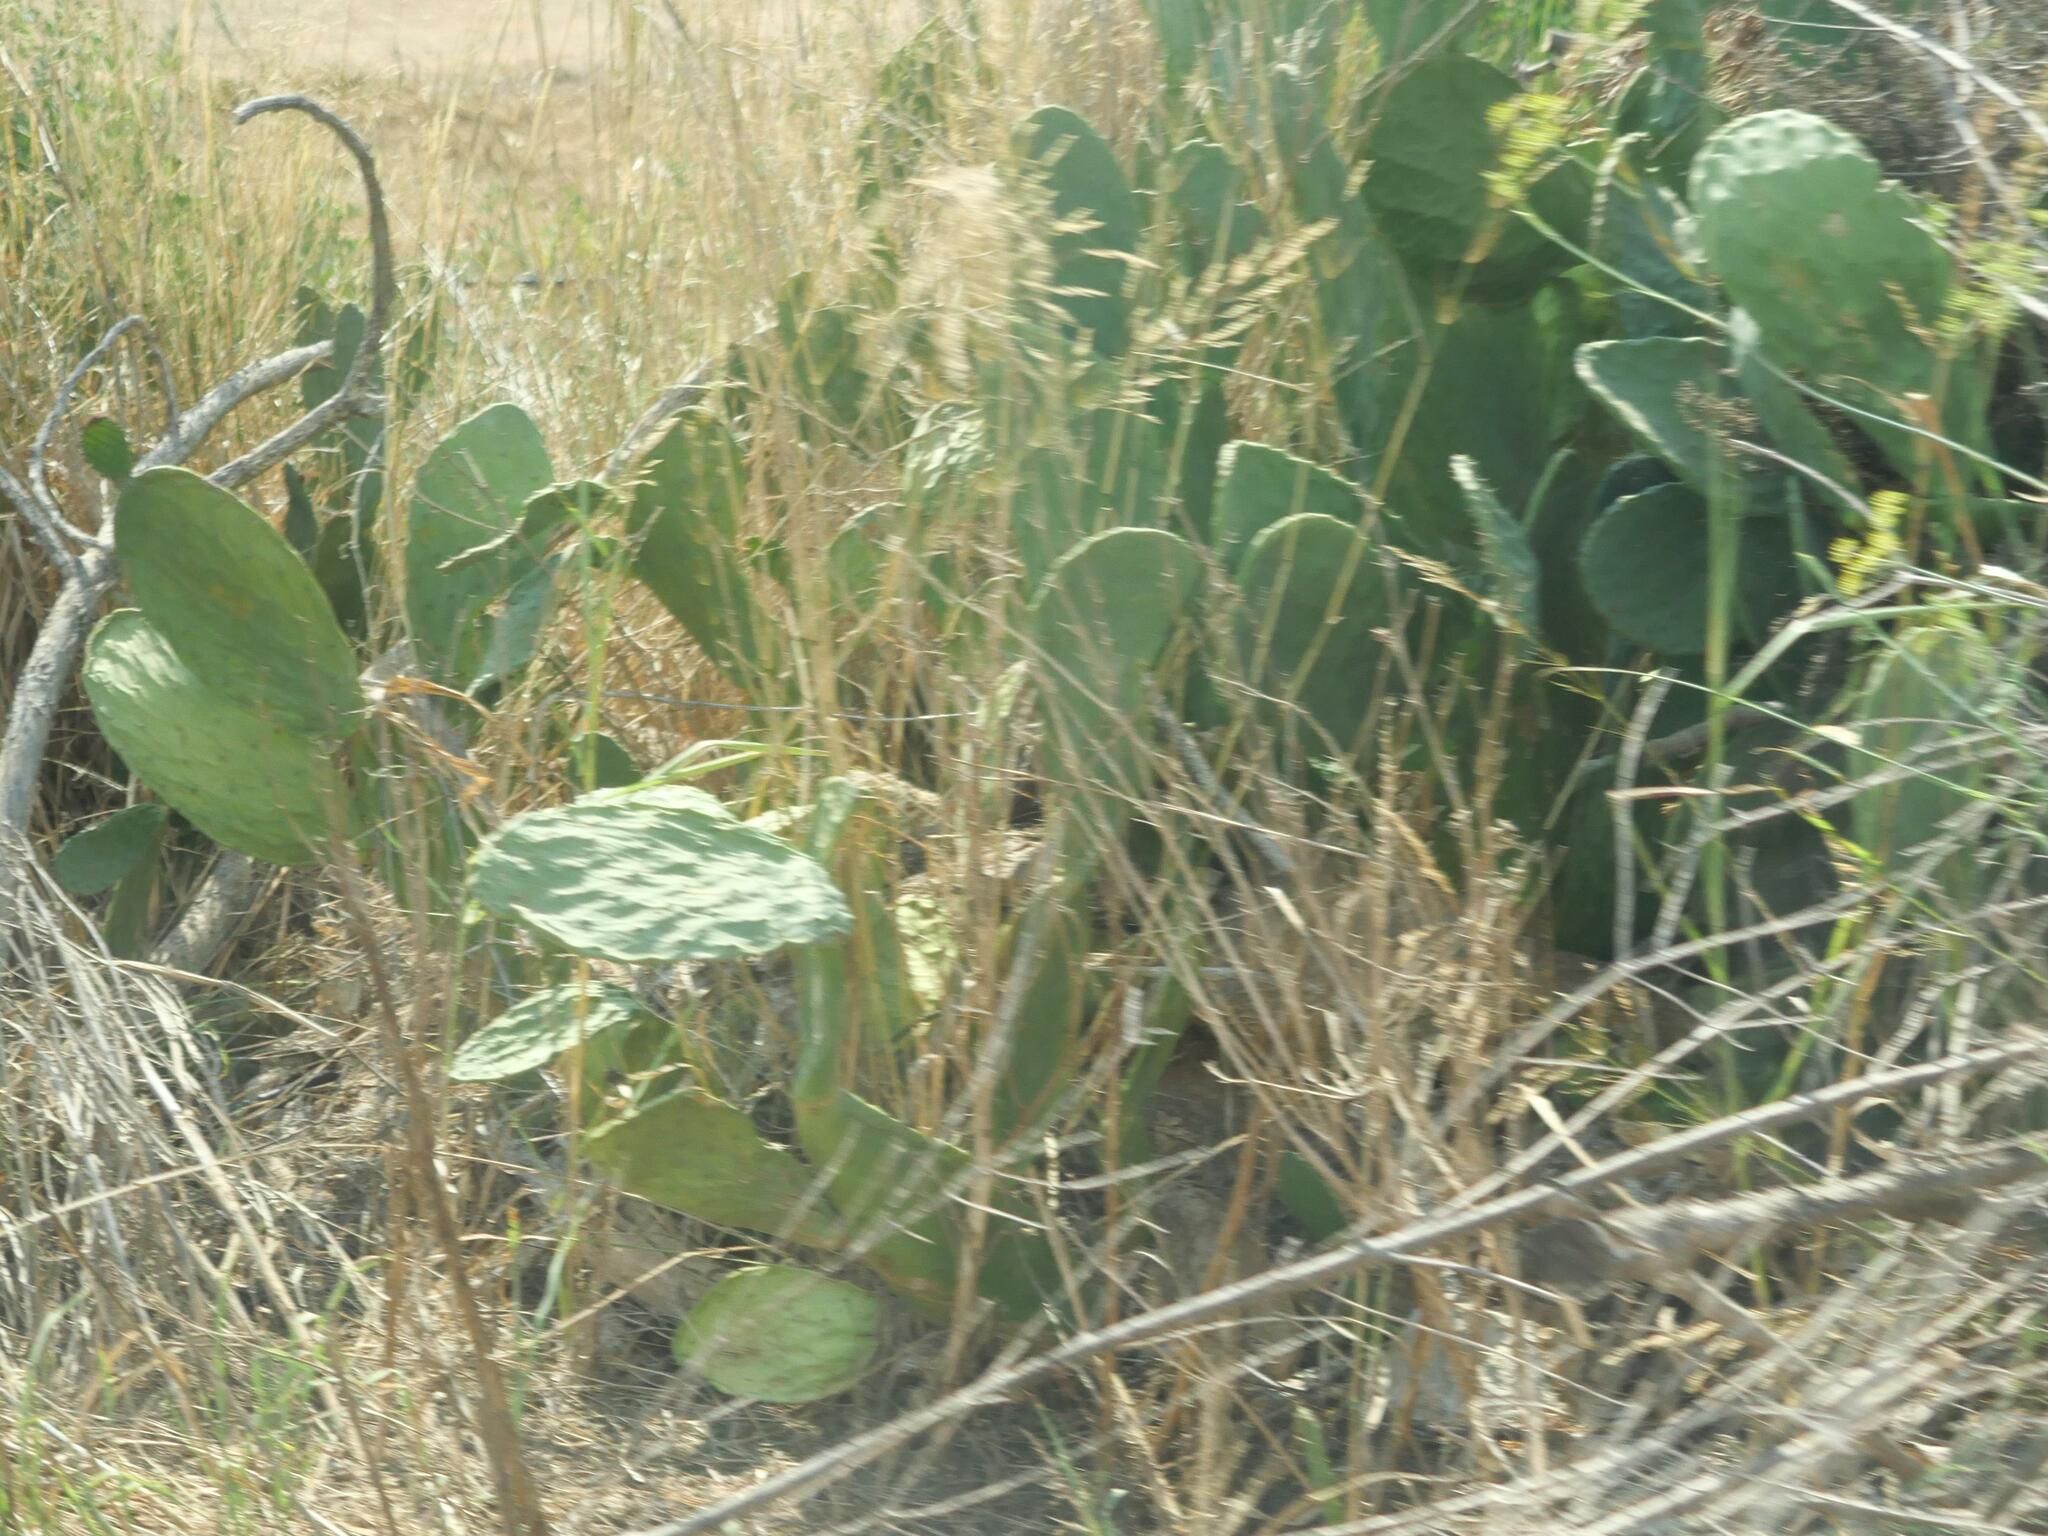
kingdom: Plantae
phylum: Tracheophyta
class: Magnoliopsida
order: Caryophyllales
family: Cactaceae
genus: Opuntia
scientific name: Opuntia ficus-indica
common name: Barbary fig
